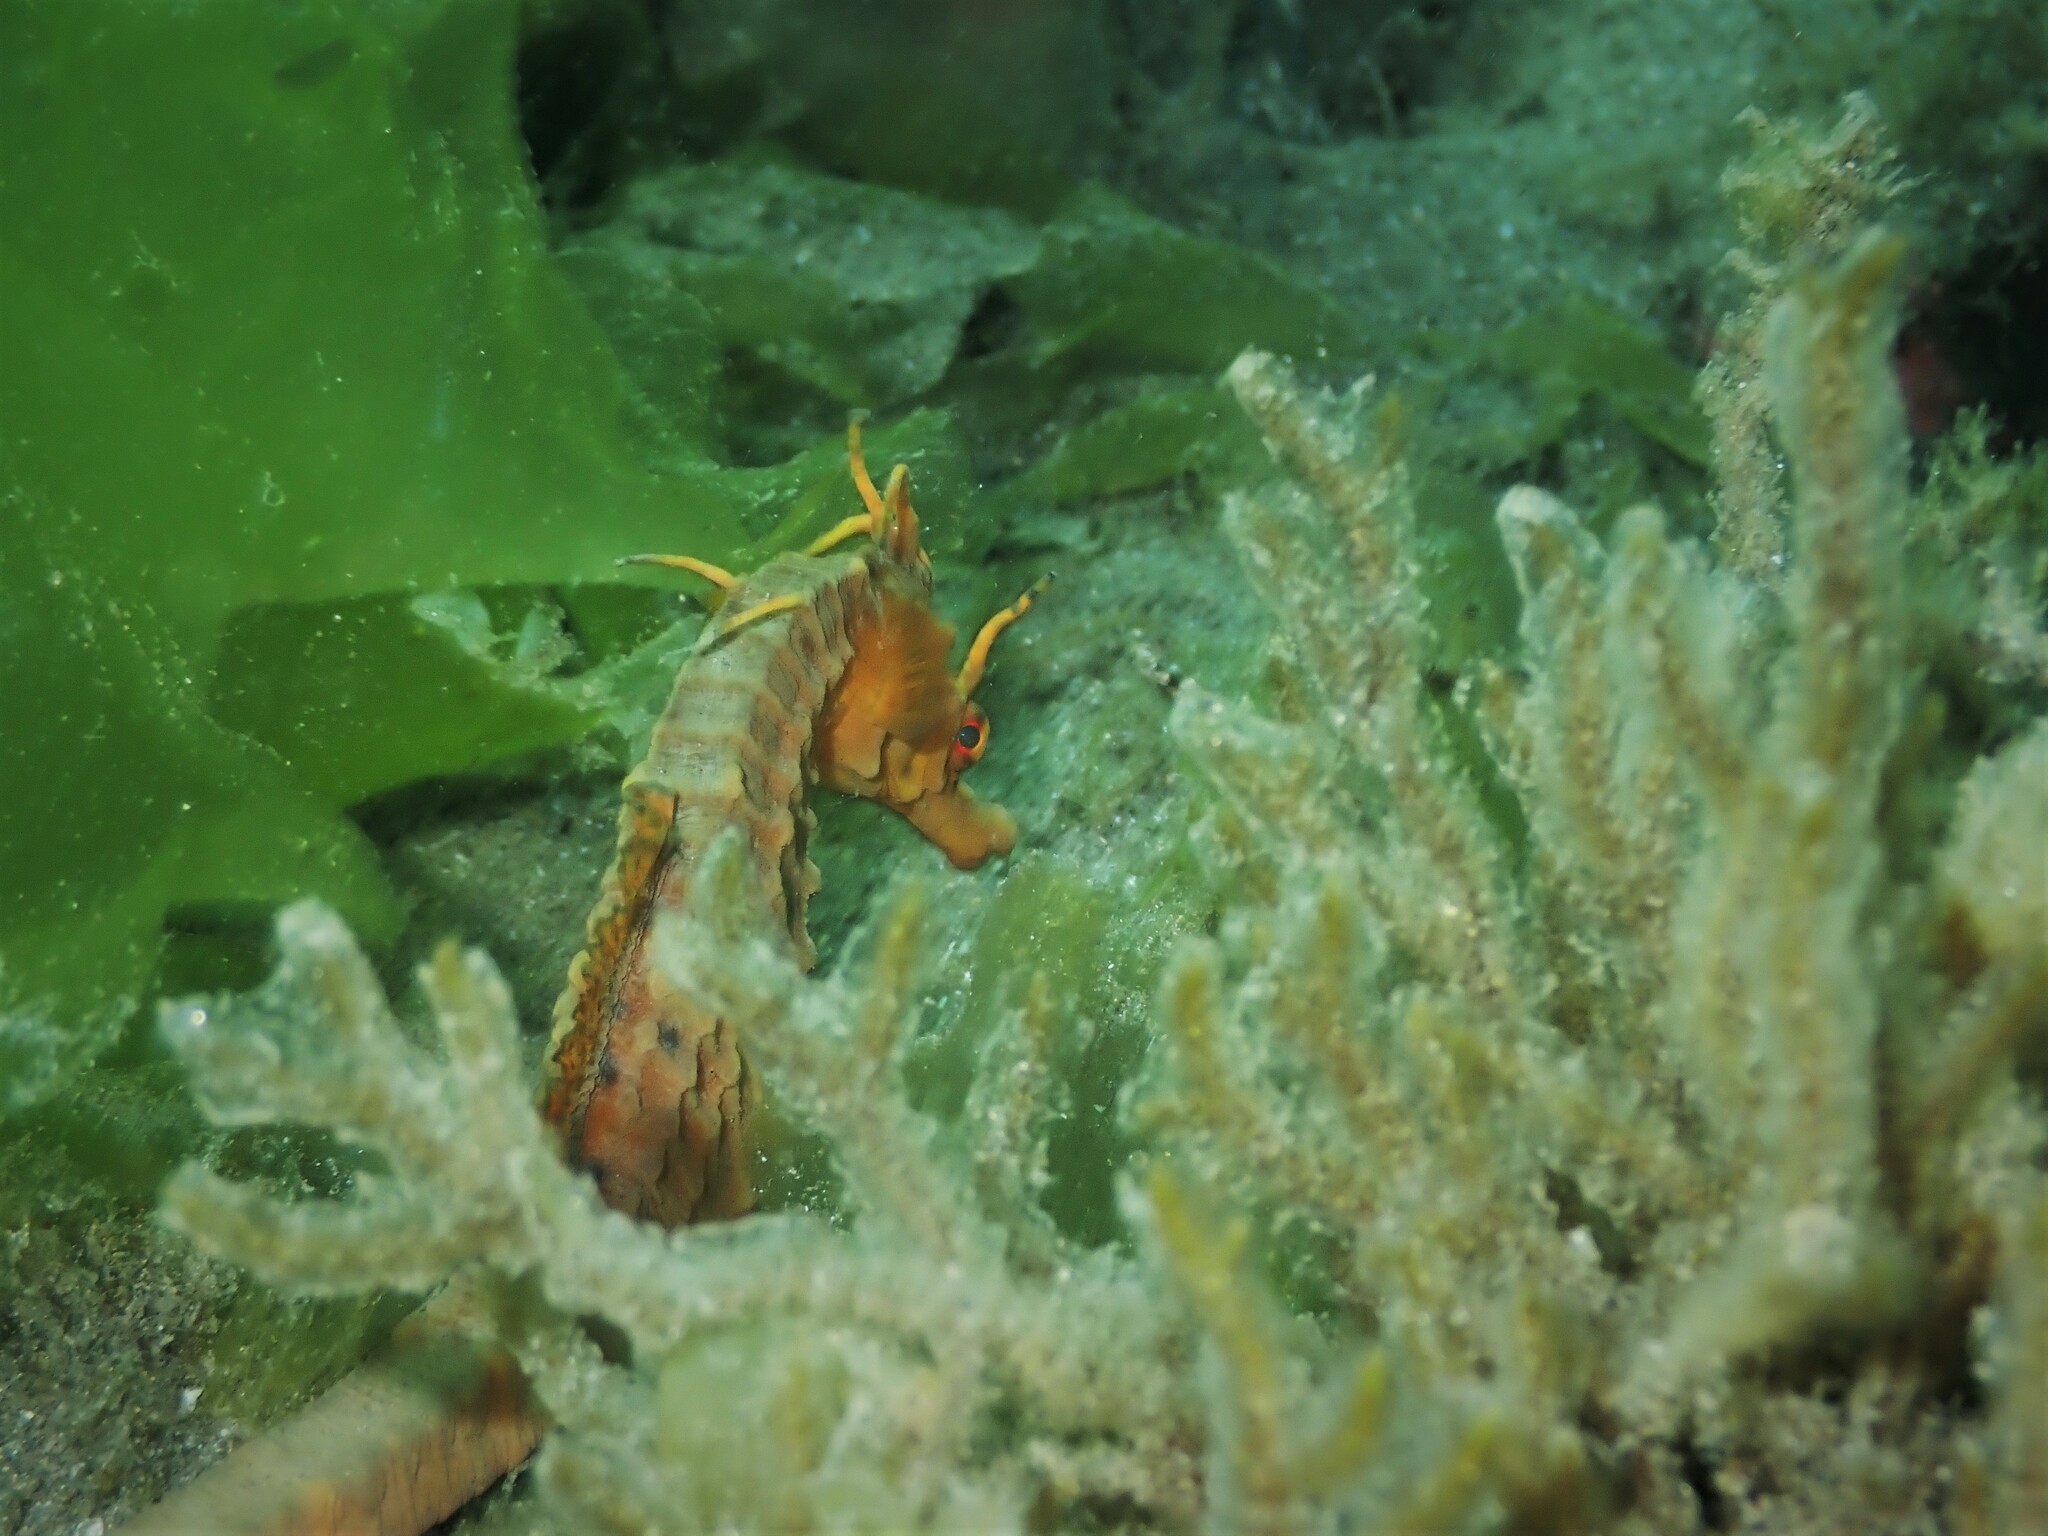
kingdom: Animalia
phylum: Chordata
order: Syngnathiformes
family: Syngnathidae
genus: Hippocampus
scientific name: Hippocampus abdominalis
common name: Big-belly seahorse
